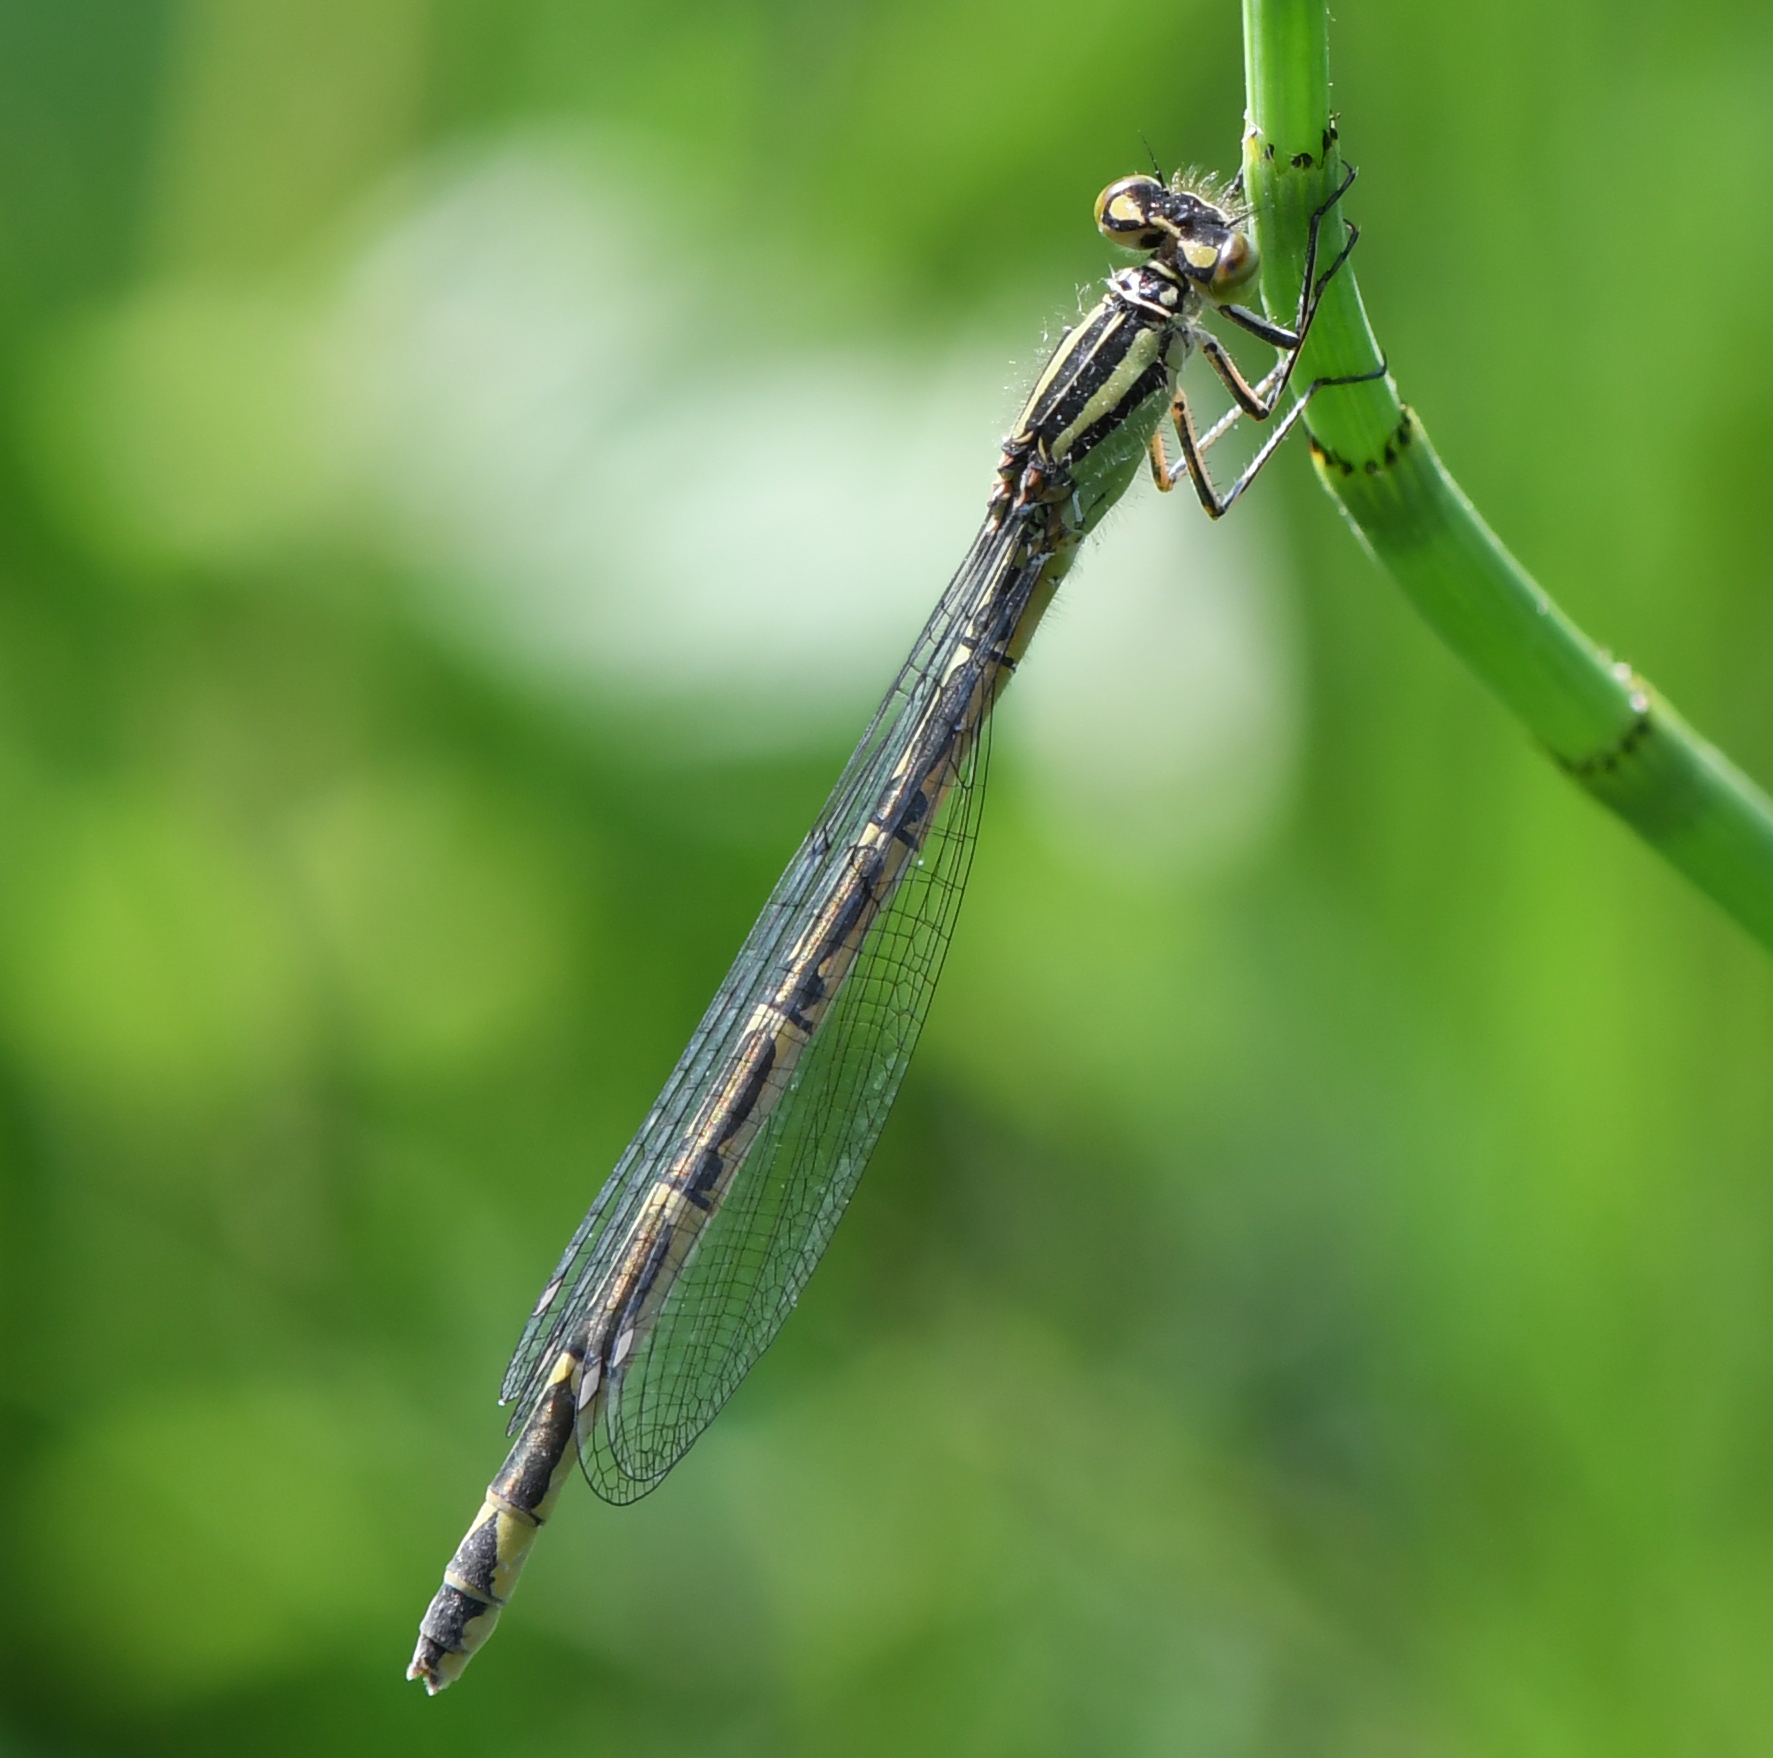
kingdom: Animalia
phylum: Arthropoda
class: Insecta
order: Odonata
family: Coenagrionidae
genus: Enallagma
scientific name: Enallagma cyathigerum
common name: Common blue damselfly
